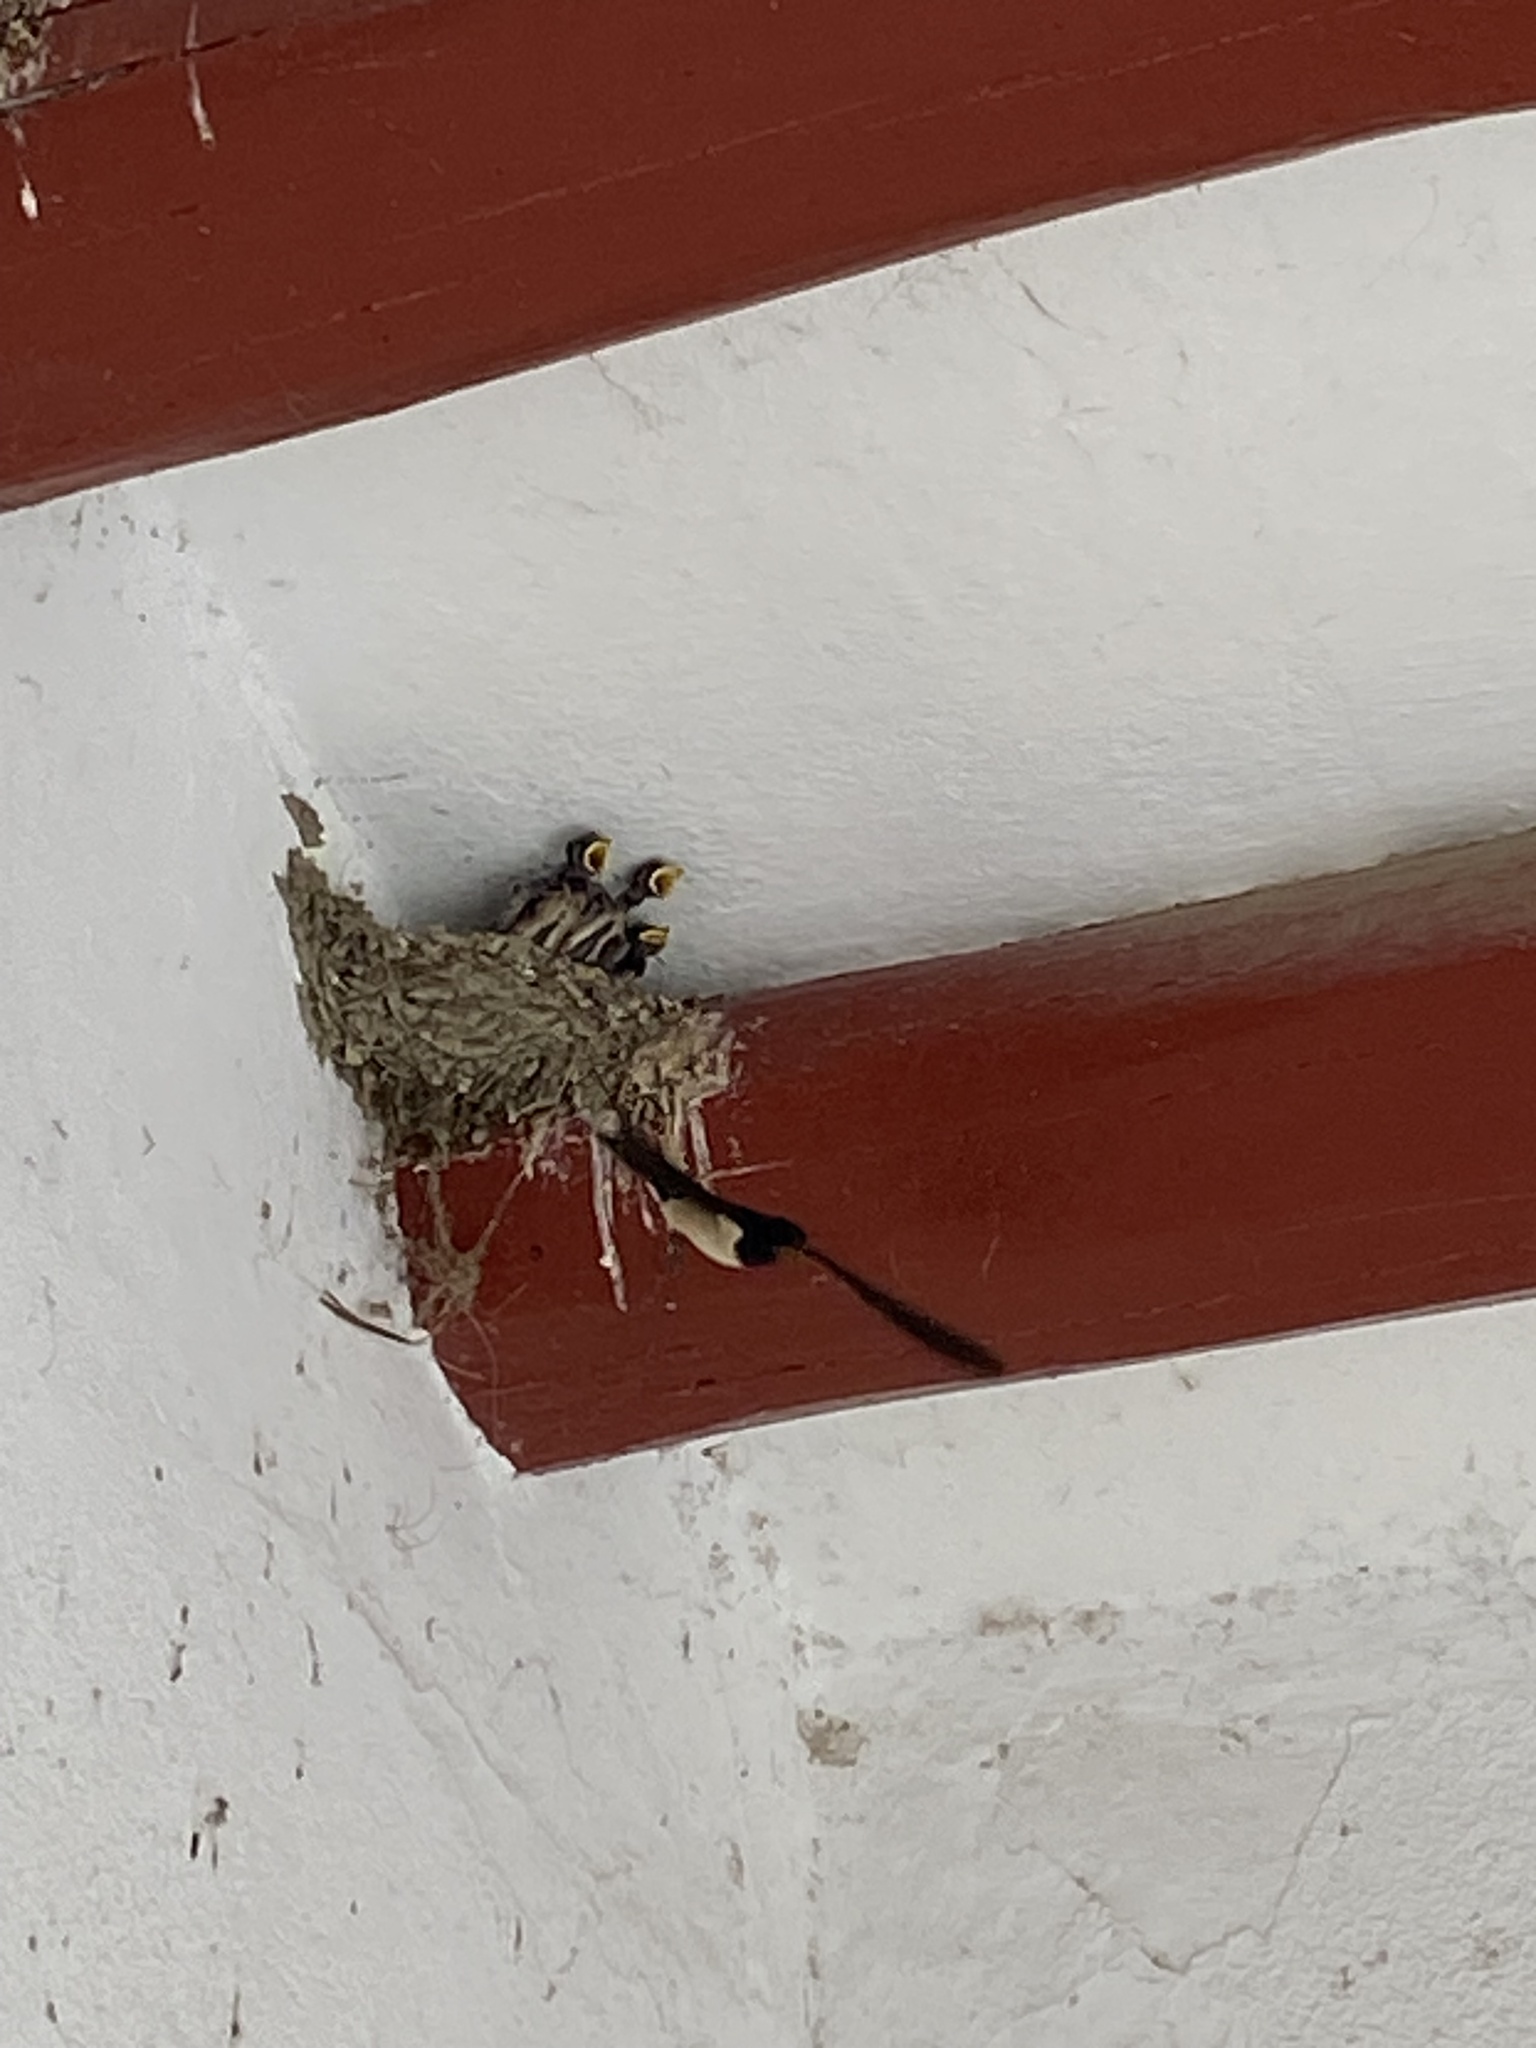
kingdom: Animalia
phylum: Chordata
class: Aves
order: Passeriformes
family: Hirundinidae
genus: Hirundo
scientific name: Hirundo rustica
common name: Barn swallow
